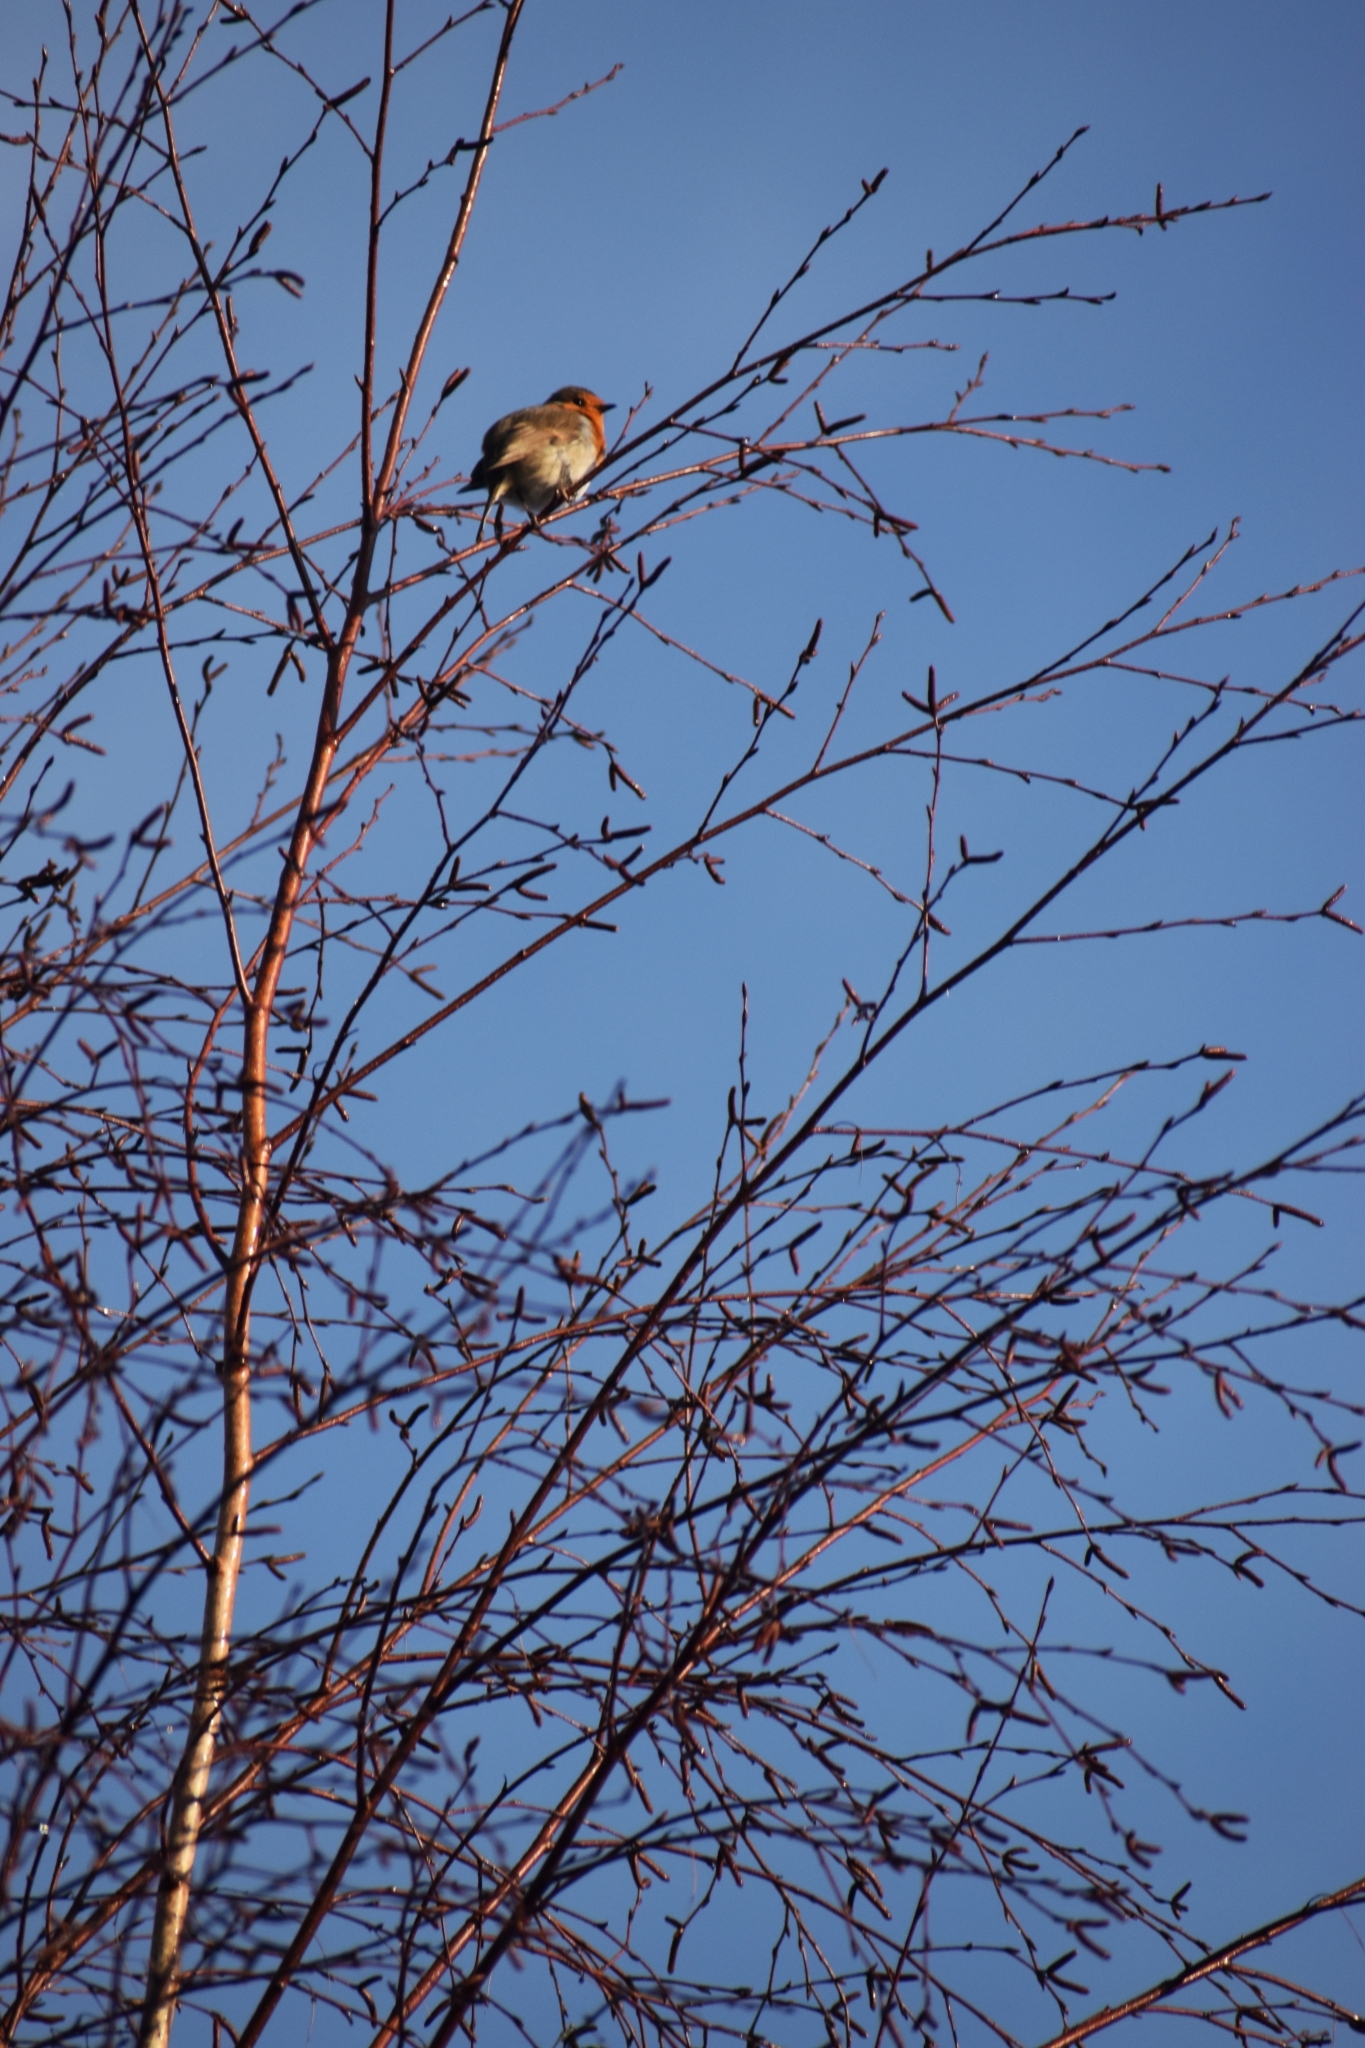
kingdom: Animalia
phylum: Chordata
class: Aves
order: Passeriformes
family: Muscicapidae
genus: Erithacus
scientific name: Erithacus rubecula
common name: European robin
